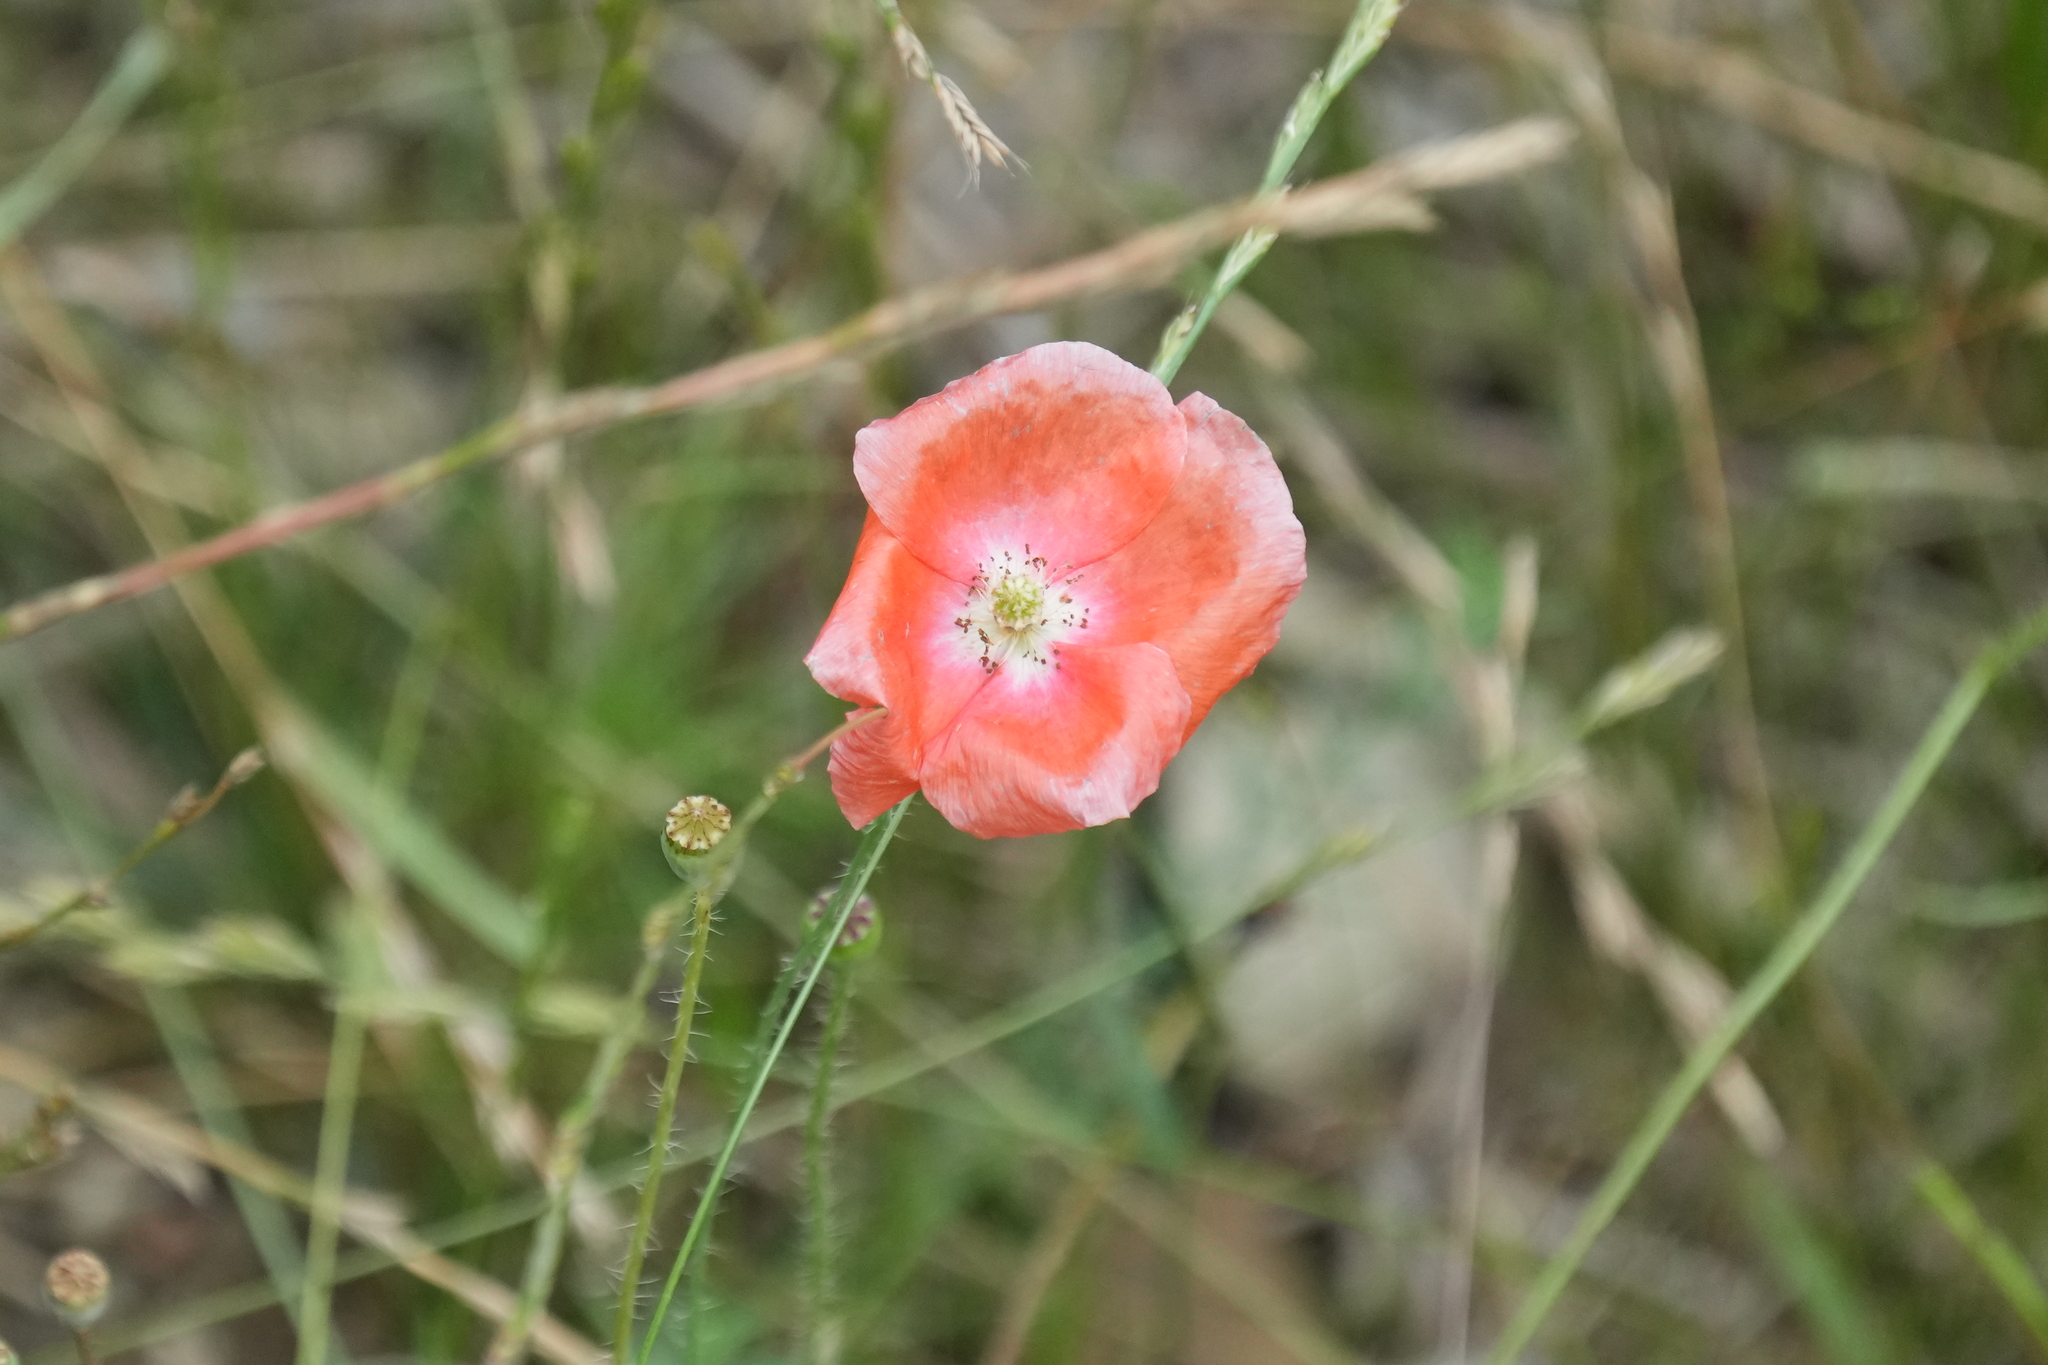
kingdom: Plantae
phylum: Tracheophyta
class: Magnoliopsida
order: Ranunculales
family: Papaveraceae
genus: Papaver
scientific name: Papaver rhoeas
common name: Corn poppy
